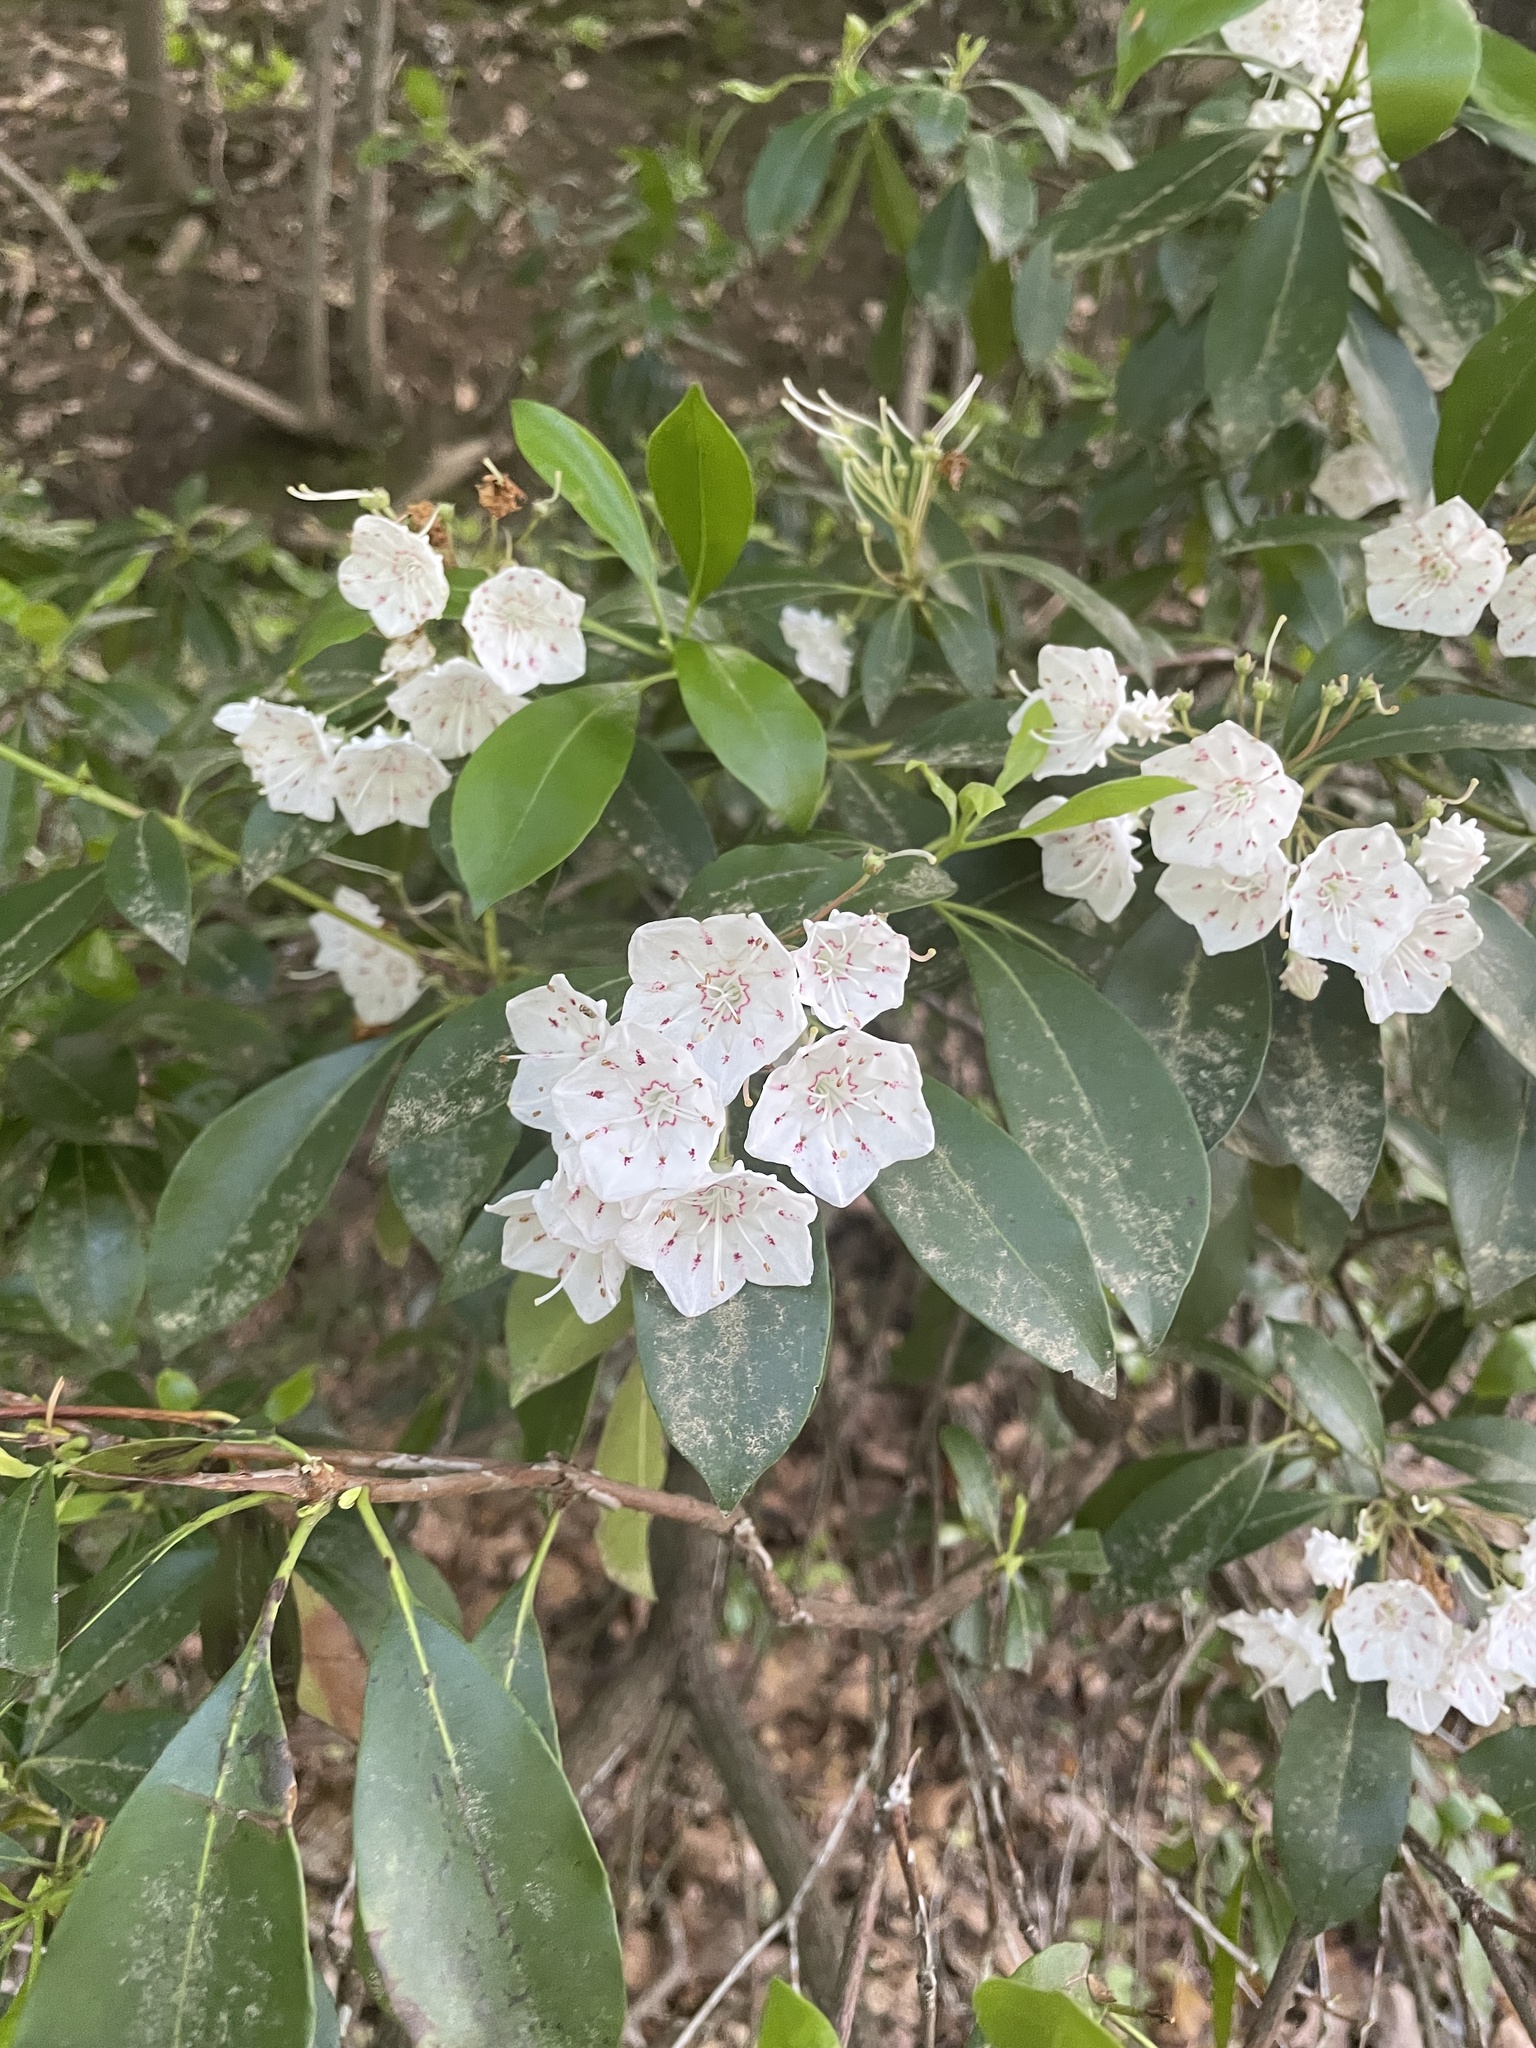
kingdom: Plantae
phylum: Tracheophyta
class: Magnoliopsida
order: Ericales
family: Ericaceae
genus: Kalmia
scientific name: Kalmia latifolia
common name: Mountain-laurel
